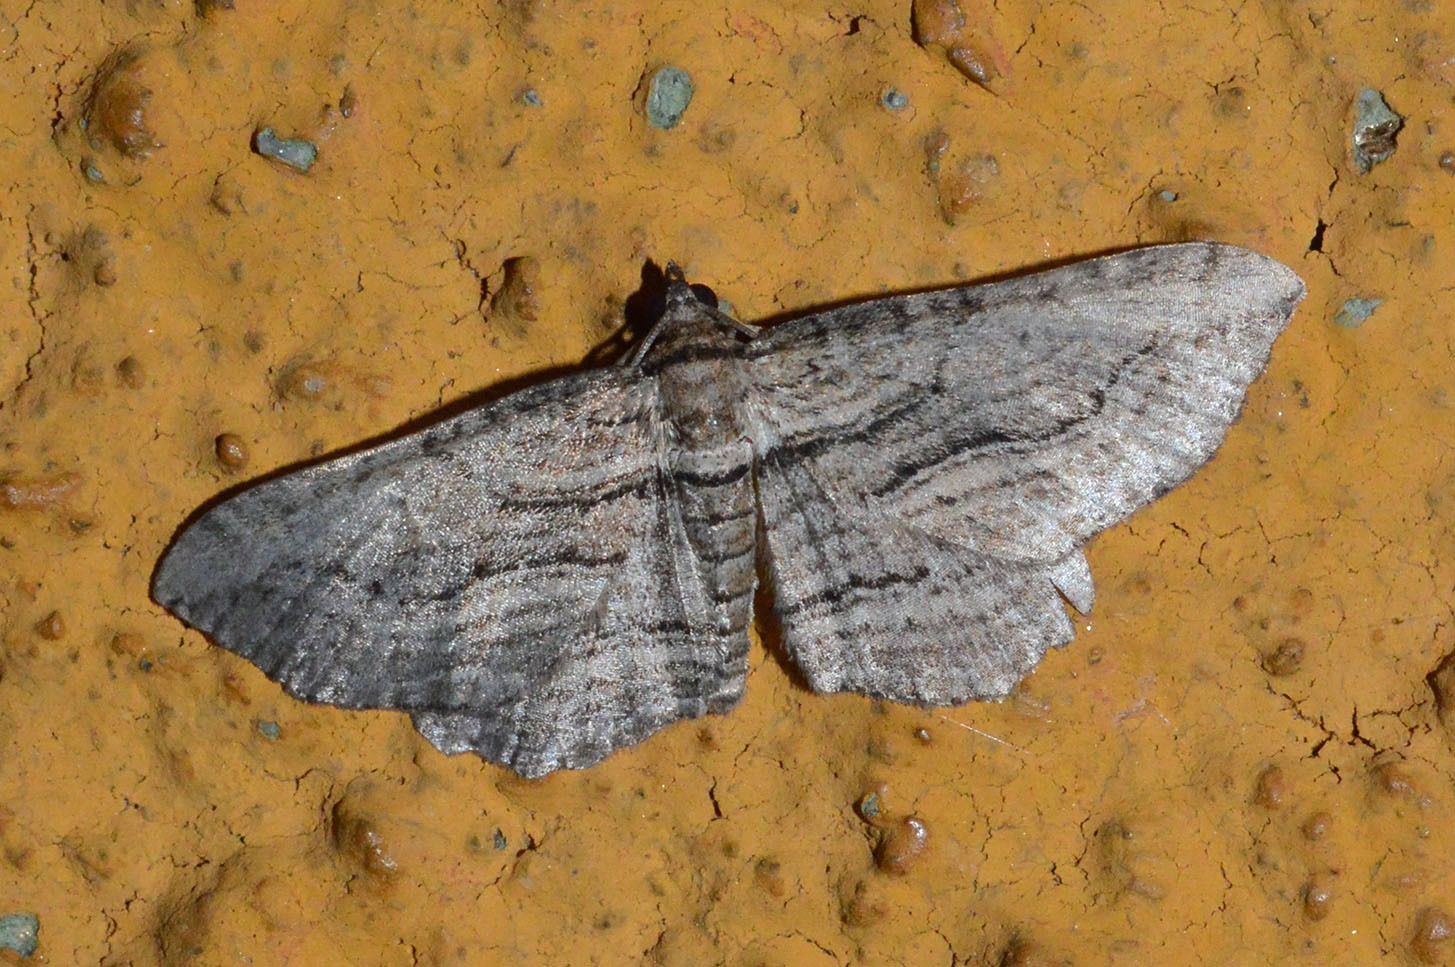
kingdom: Animalia
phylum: Arthropoda
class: Insecta
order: Lepidoptera
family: Geometridae
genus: Horisme
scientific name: Horisme corticata
